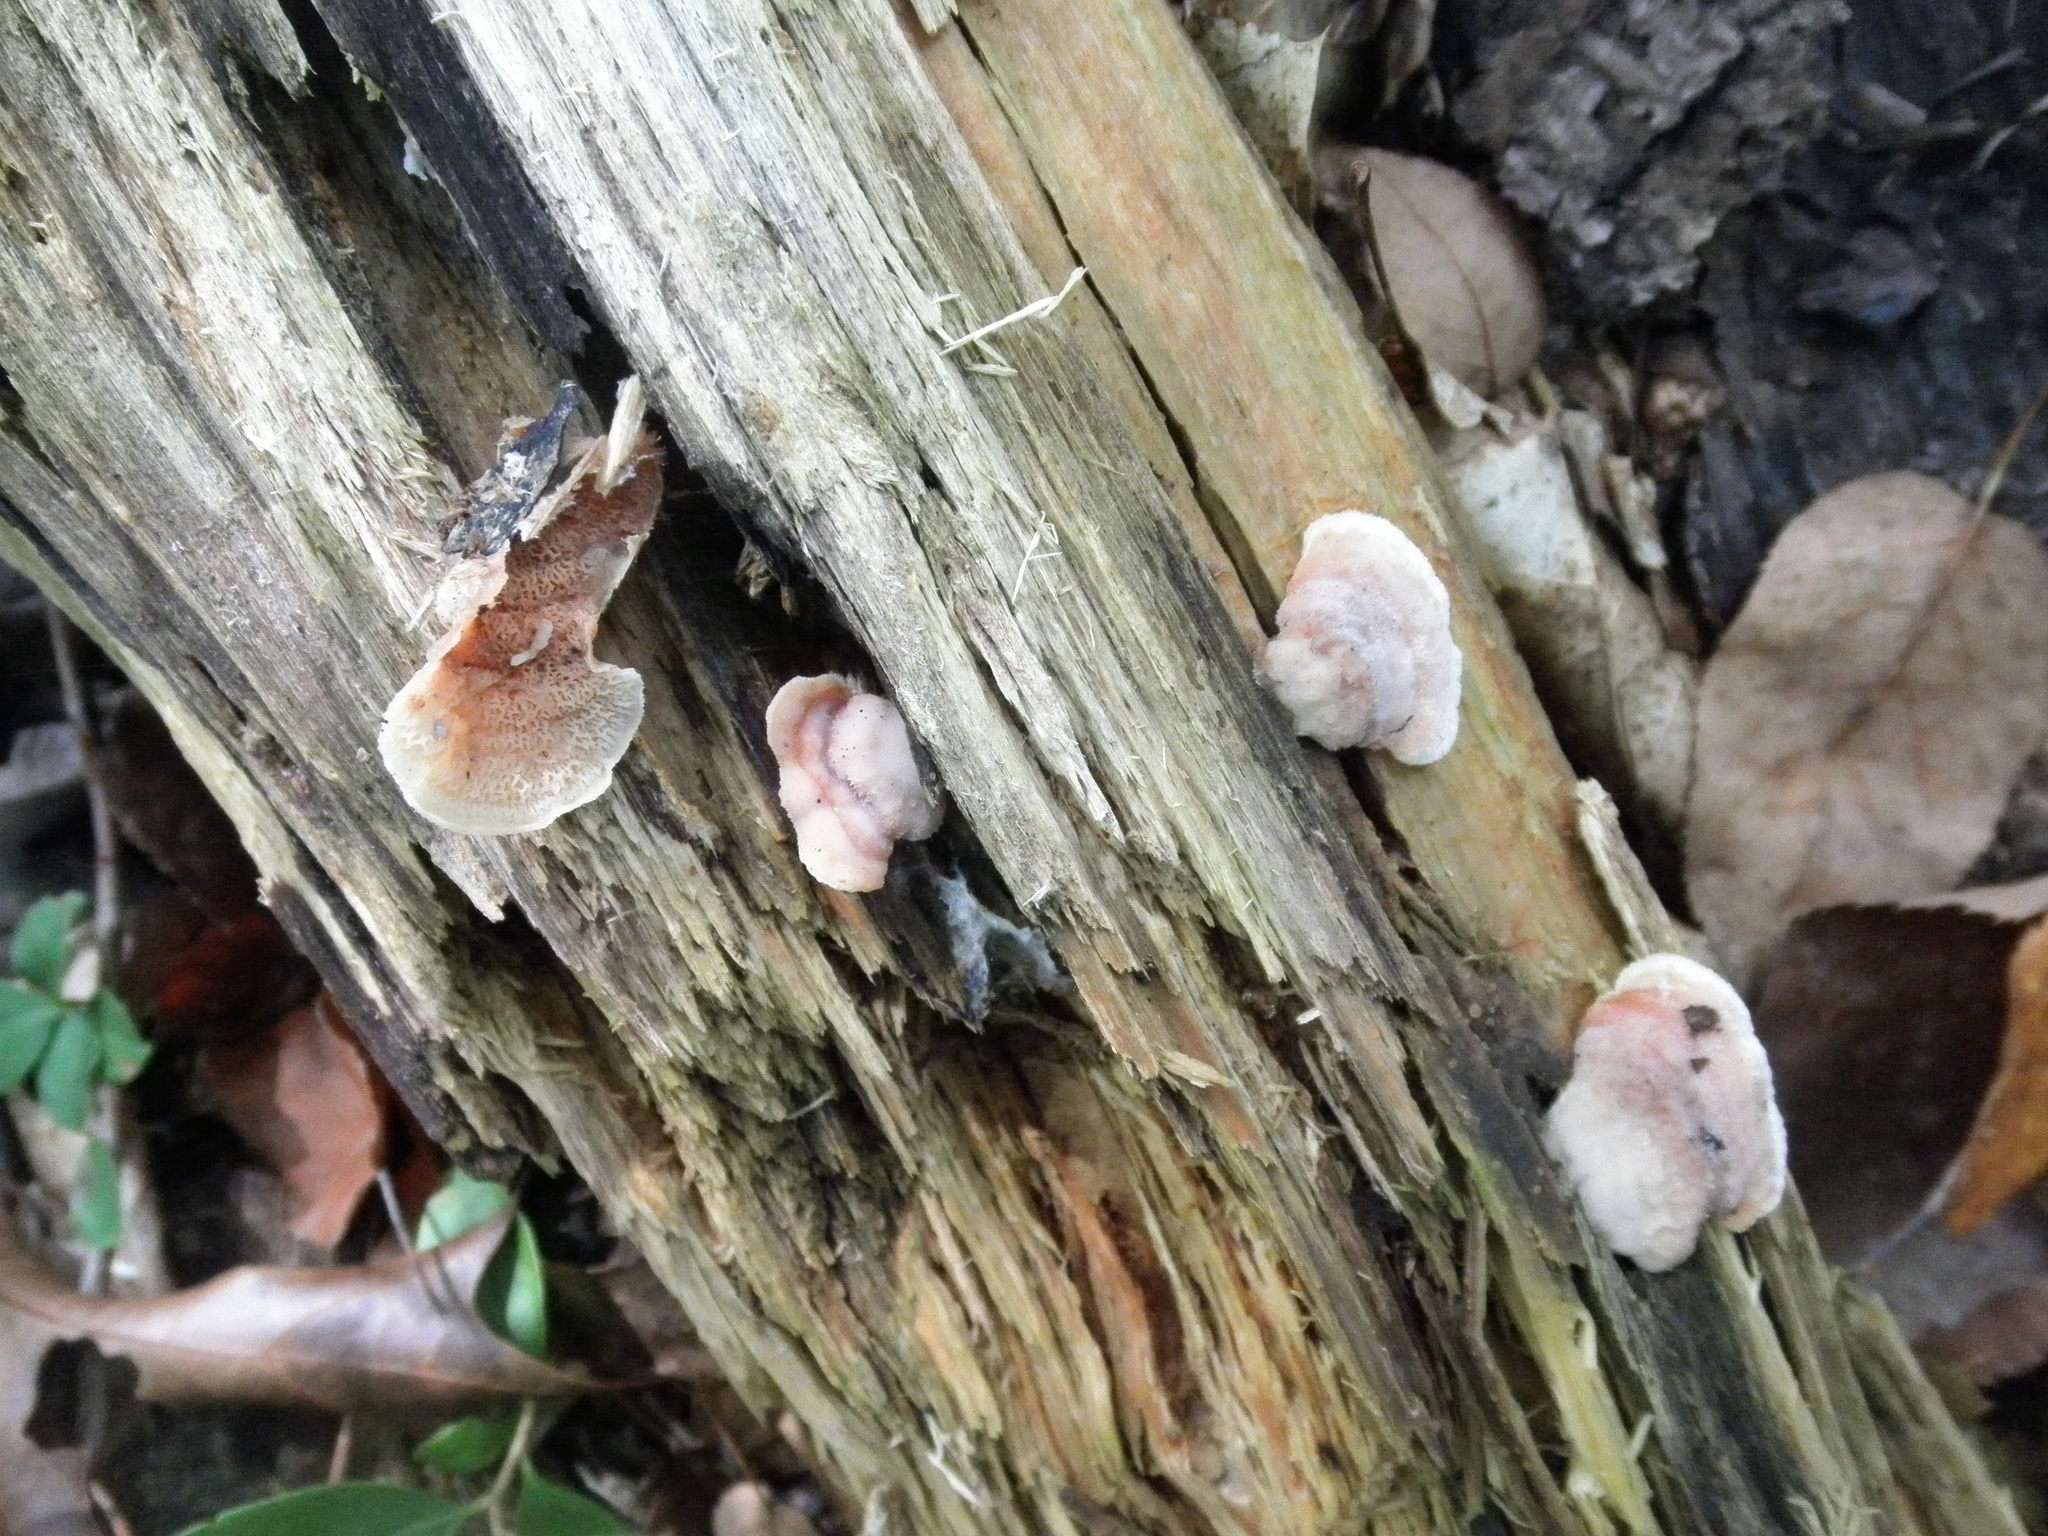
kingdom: Fungi
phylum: Basidiomycota
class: Agaricomycetes
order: Polyporales
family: Meruliaceae
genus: Phlebia
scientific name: Phlebia tremellosa
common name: Jelly rot
